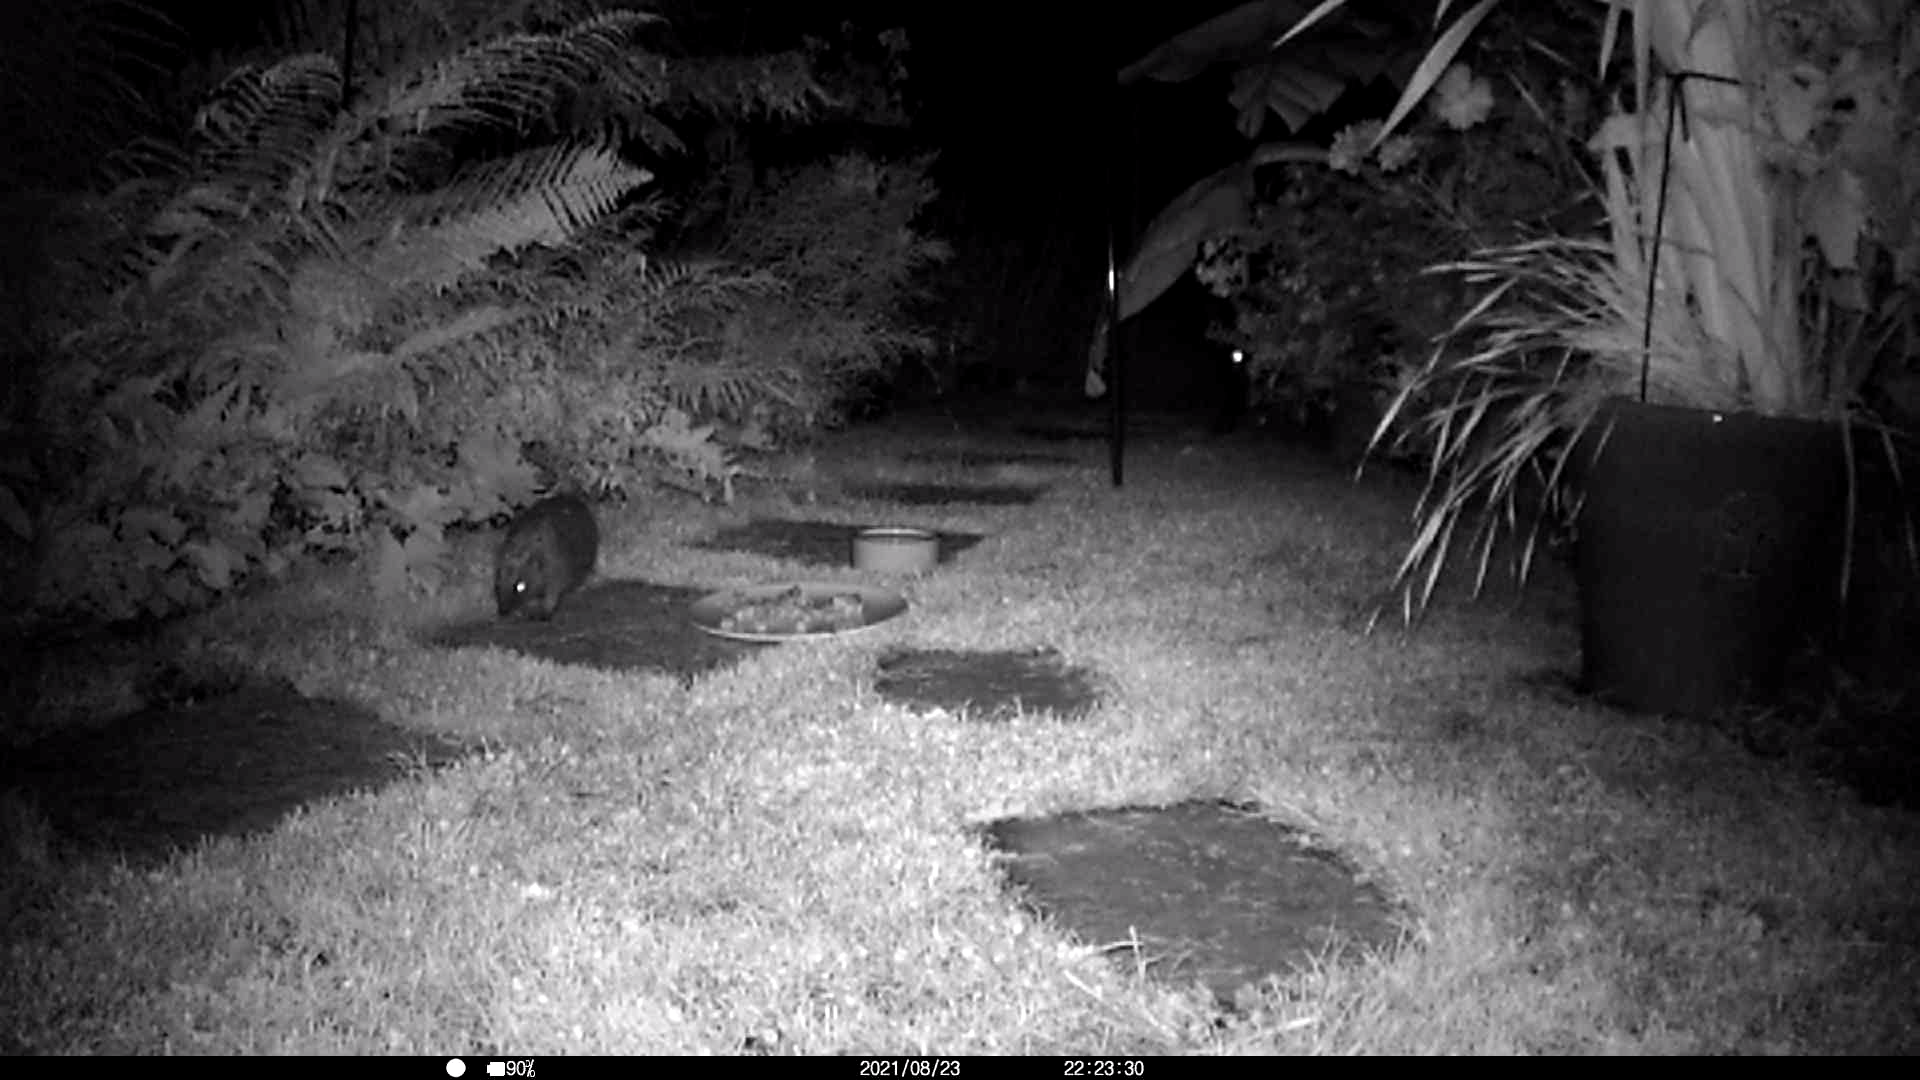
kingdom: Animalia
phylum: Chordata
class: Mammalia
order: Erinaceomorpha
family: Erinaceidae
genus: Erinaceus
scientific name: Erinaceus europaeus
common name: West european hedgehog
